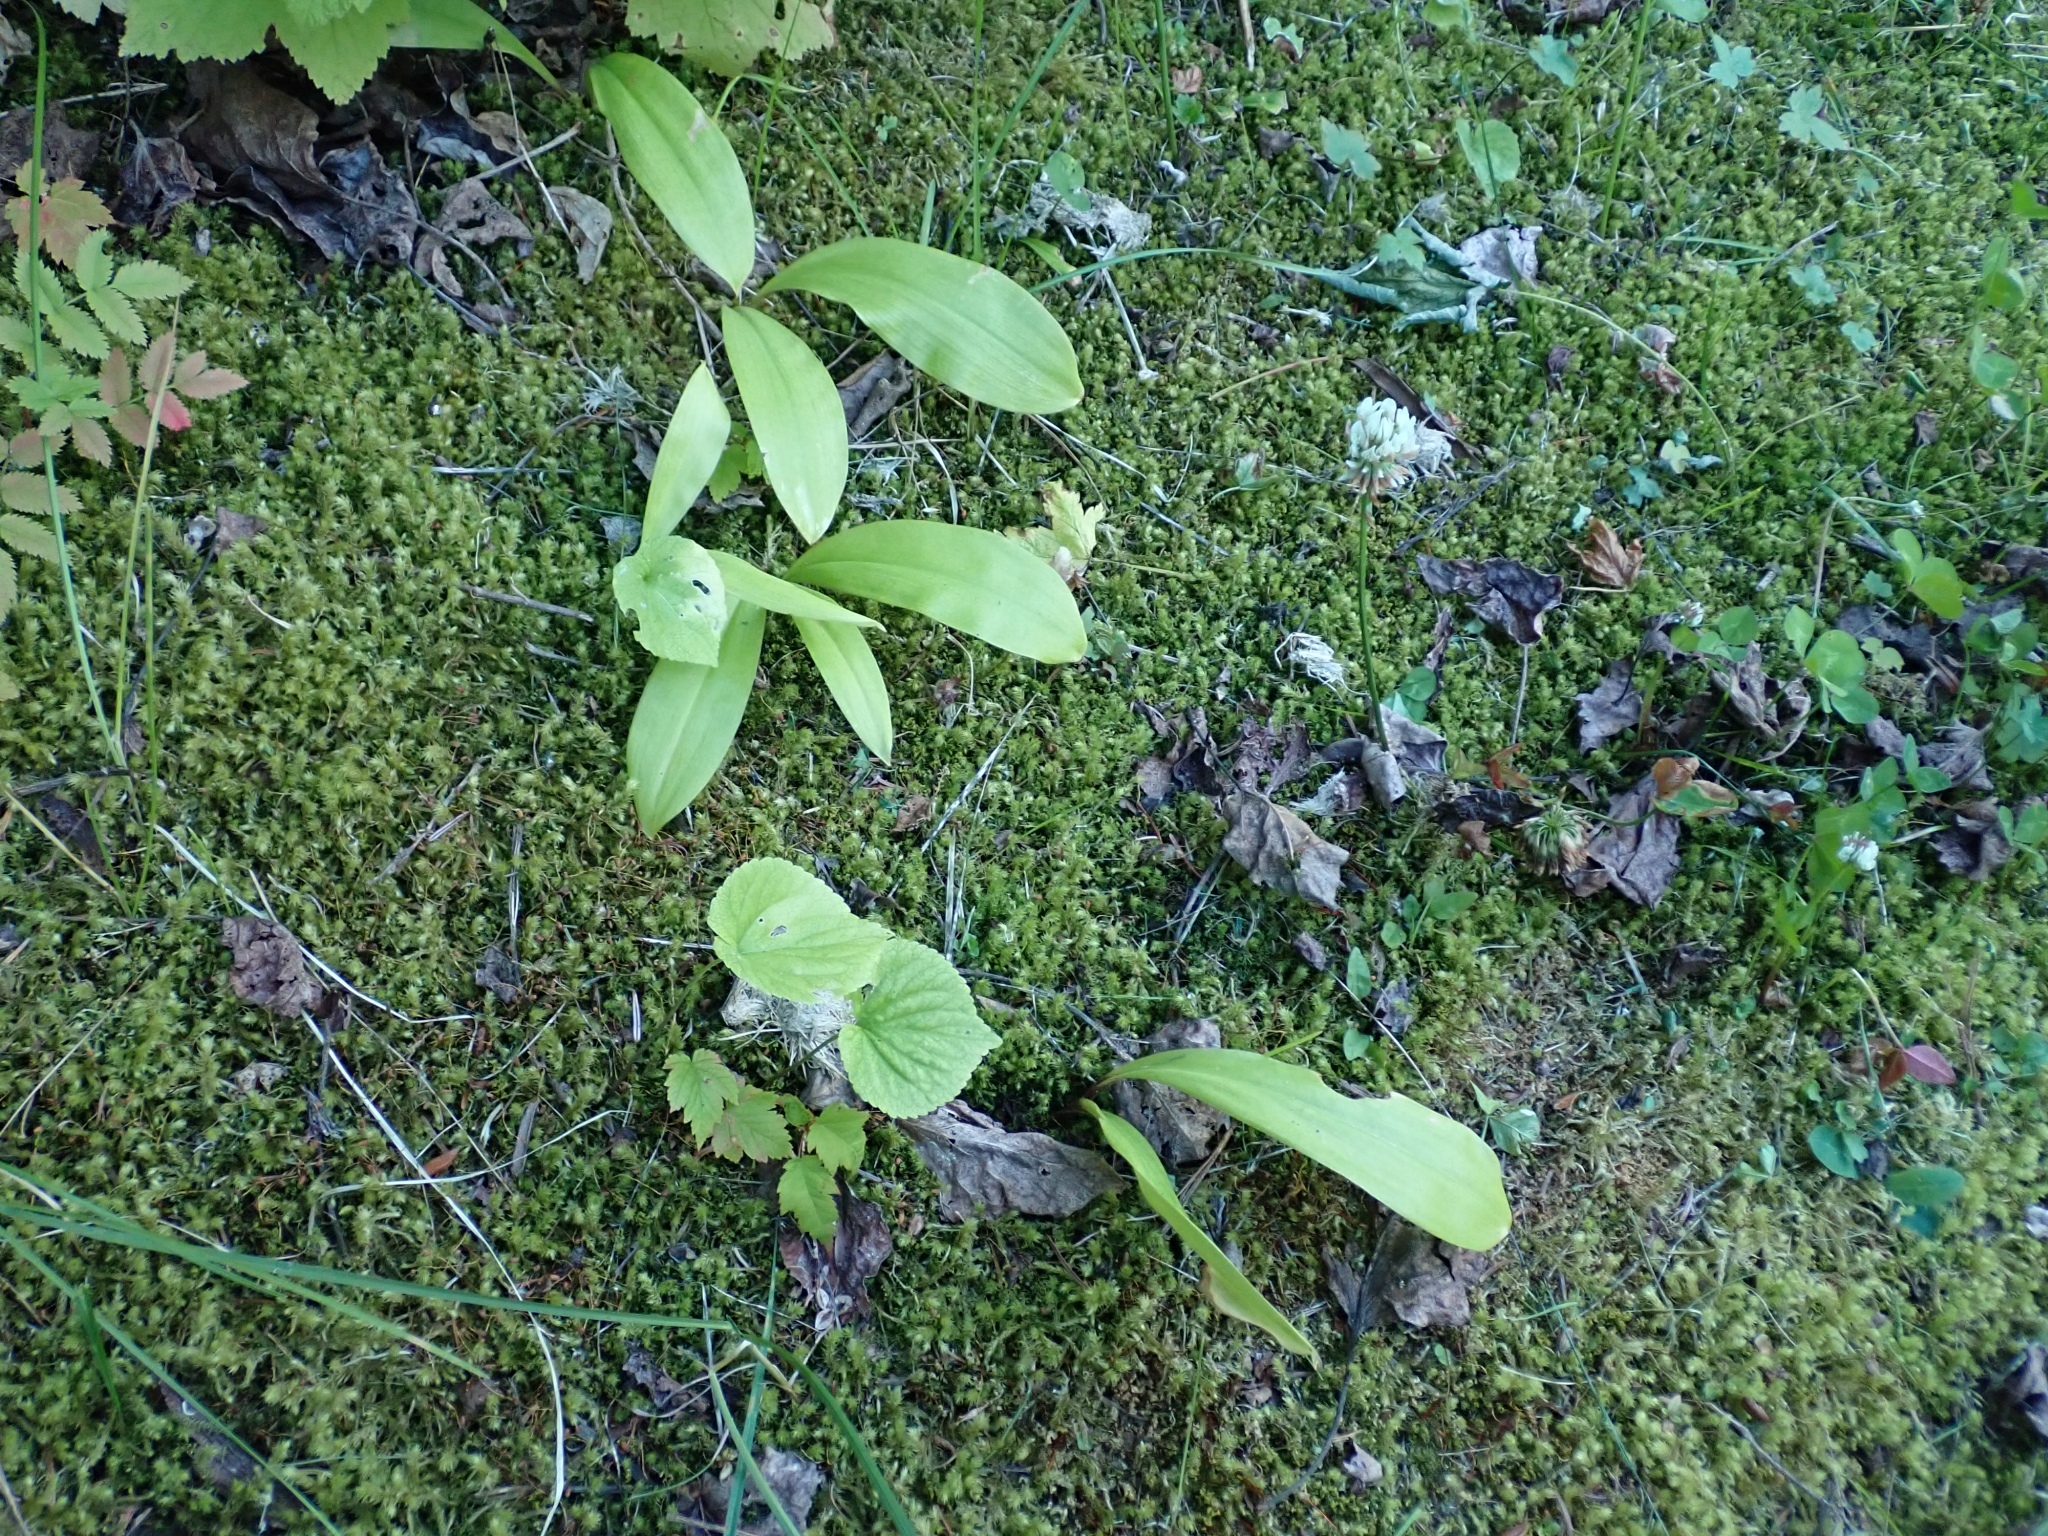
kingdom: Plantae
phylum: Tracheophyta
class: Liliopsida
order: Liliales
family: Liliaceae
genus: Clintonia
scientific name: Clintonia uniflora
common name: Queen's cup
